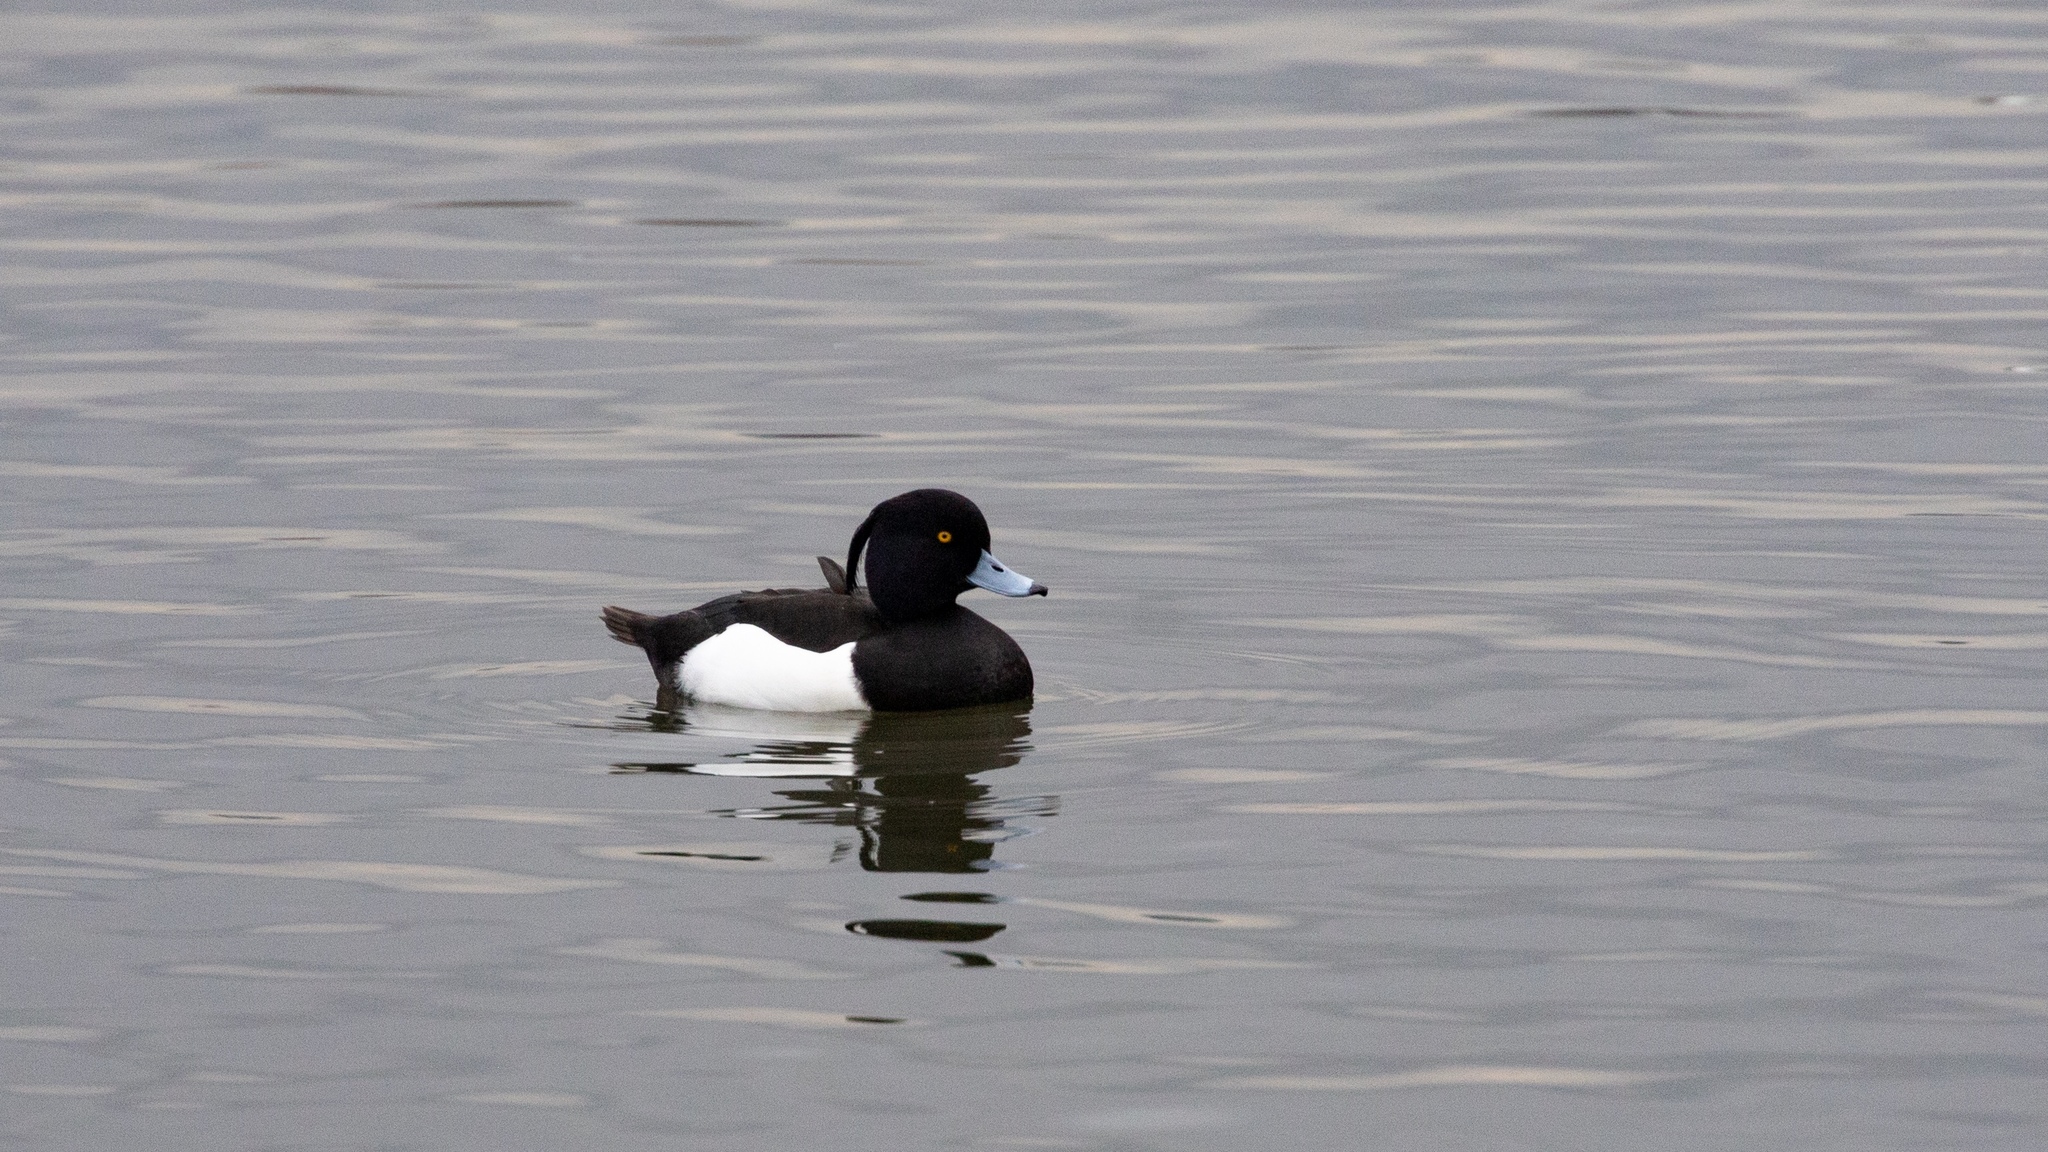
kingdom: Animalia
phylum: Chordata
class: Aves
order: Anseriformes
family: Anatidae
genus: Aythya
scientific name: Aythya fuligula
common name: Tufted duck
